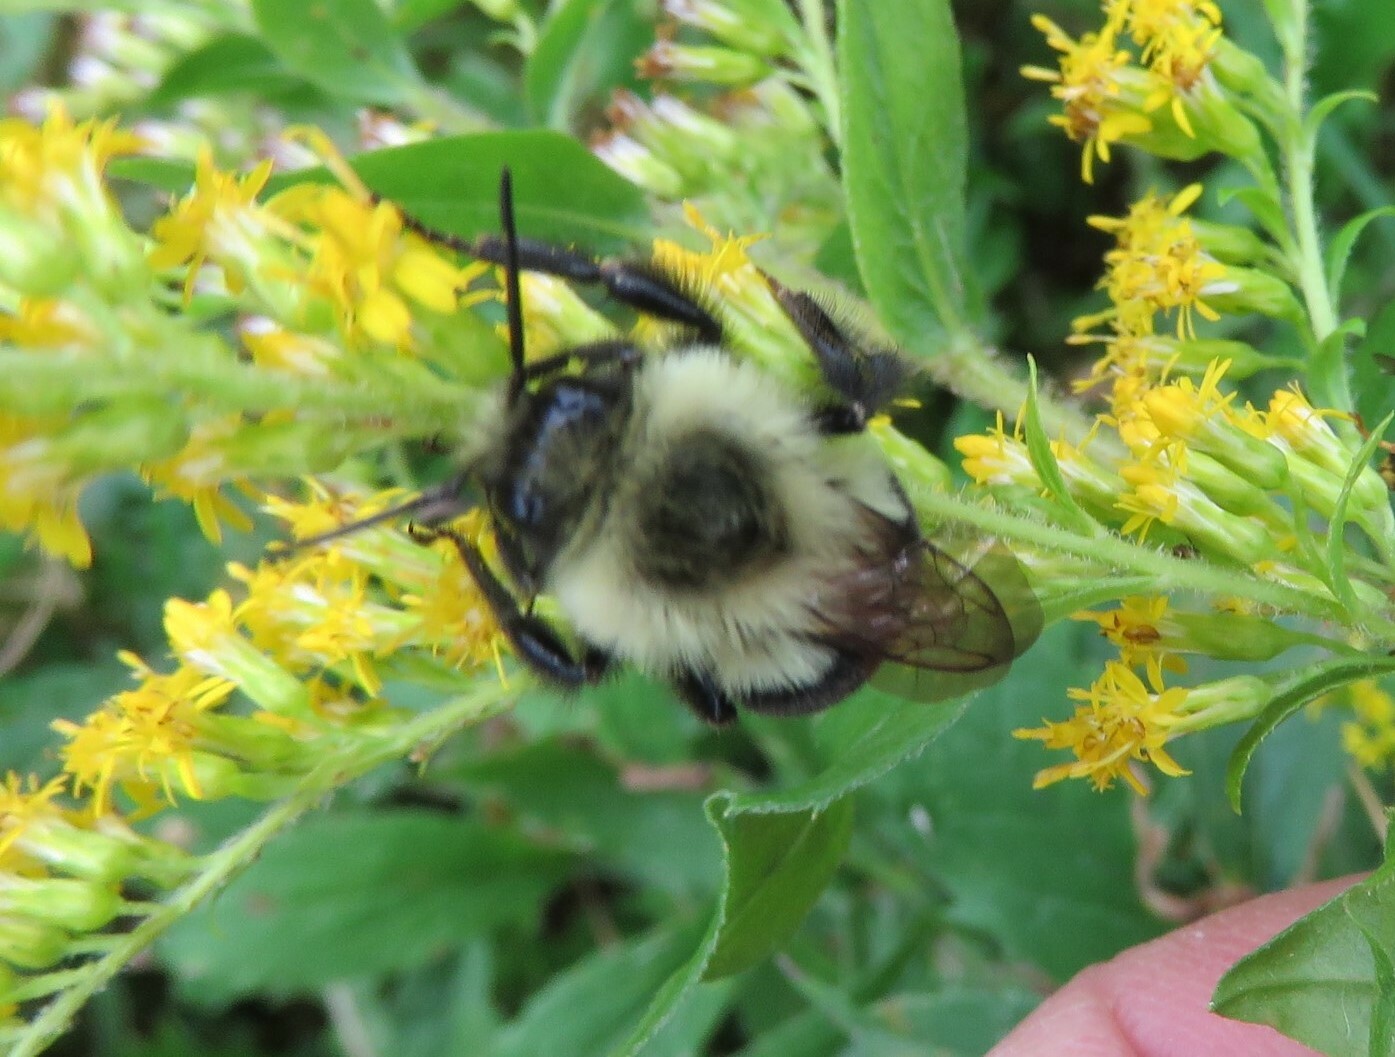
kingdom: Animalia
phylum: Arthropoda
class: Insecta
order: Hymenoptera
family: Apidae
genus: Bombus
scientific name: Bombus impatiens
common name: Common eastern bumble bee
